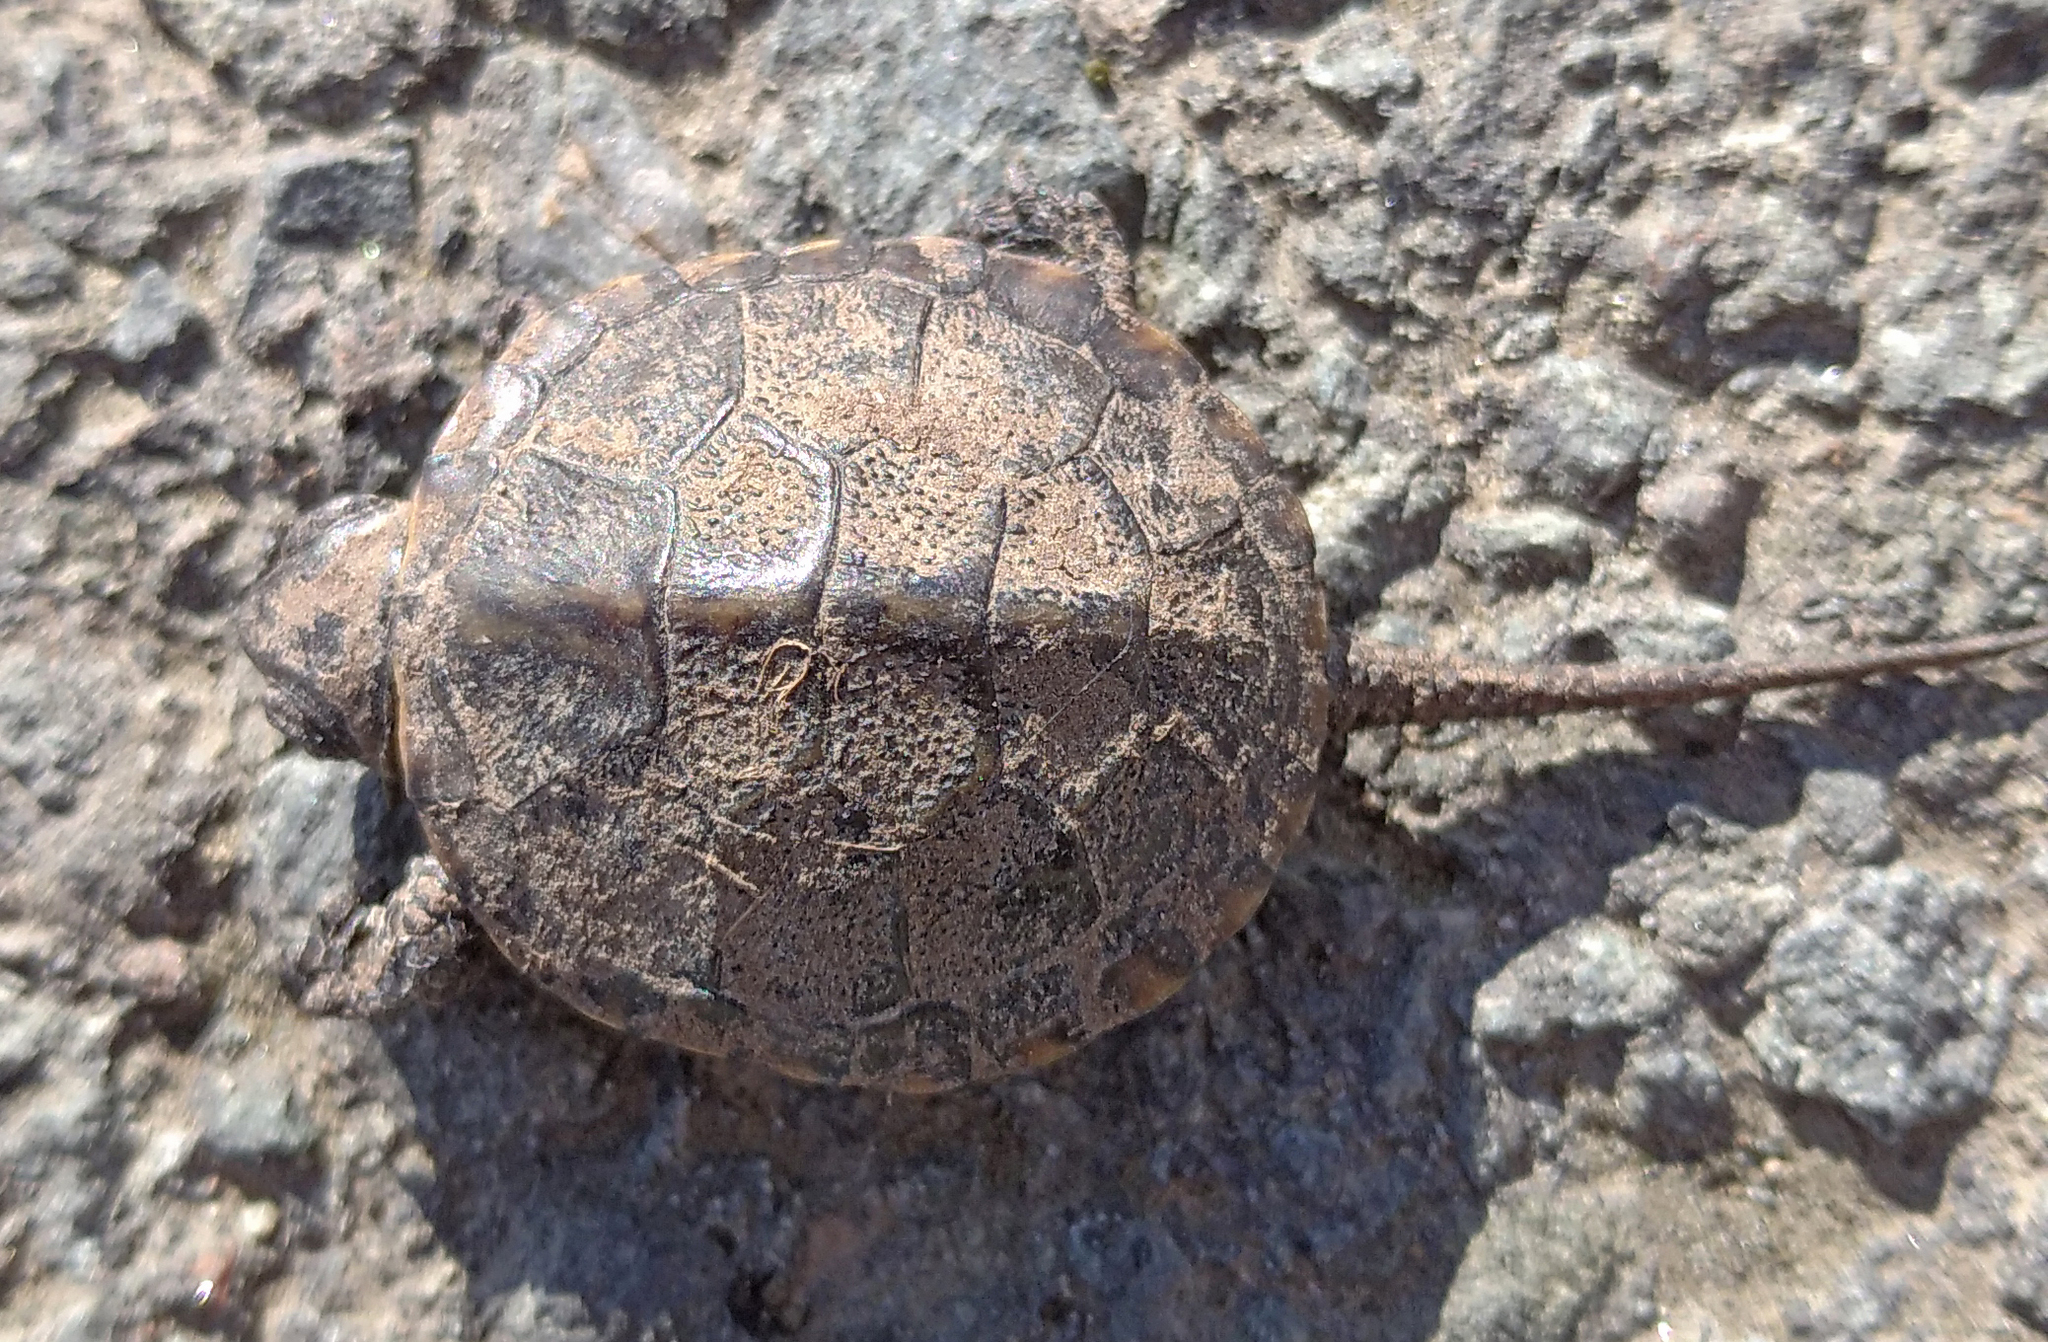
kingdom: Animalia
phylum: Chordata
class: Testudines
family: Emydidae
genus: Emys
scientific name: Emys orbicularis
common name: European pond turtle
